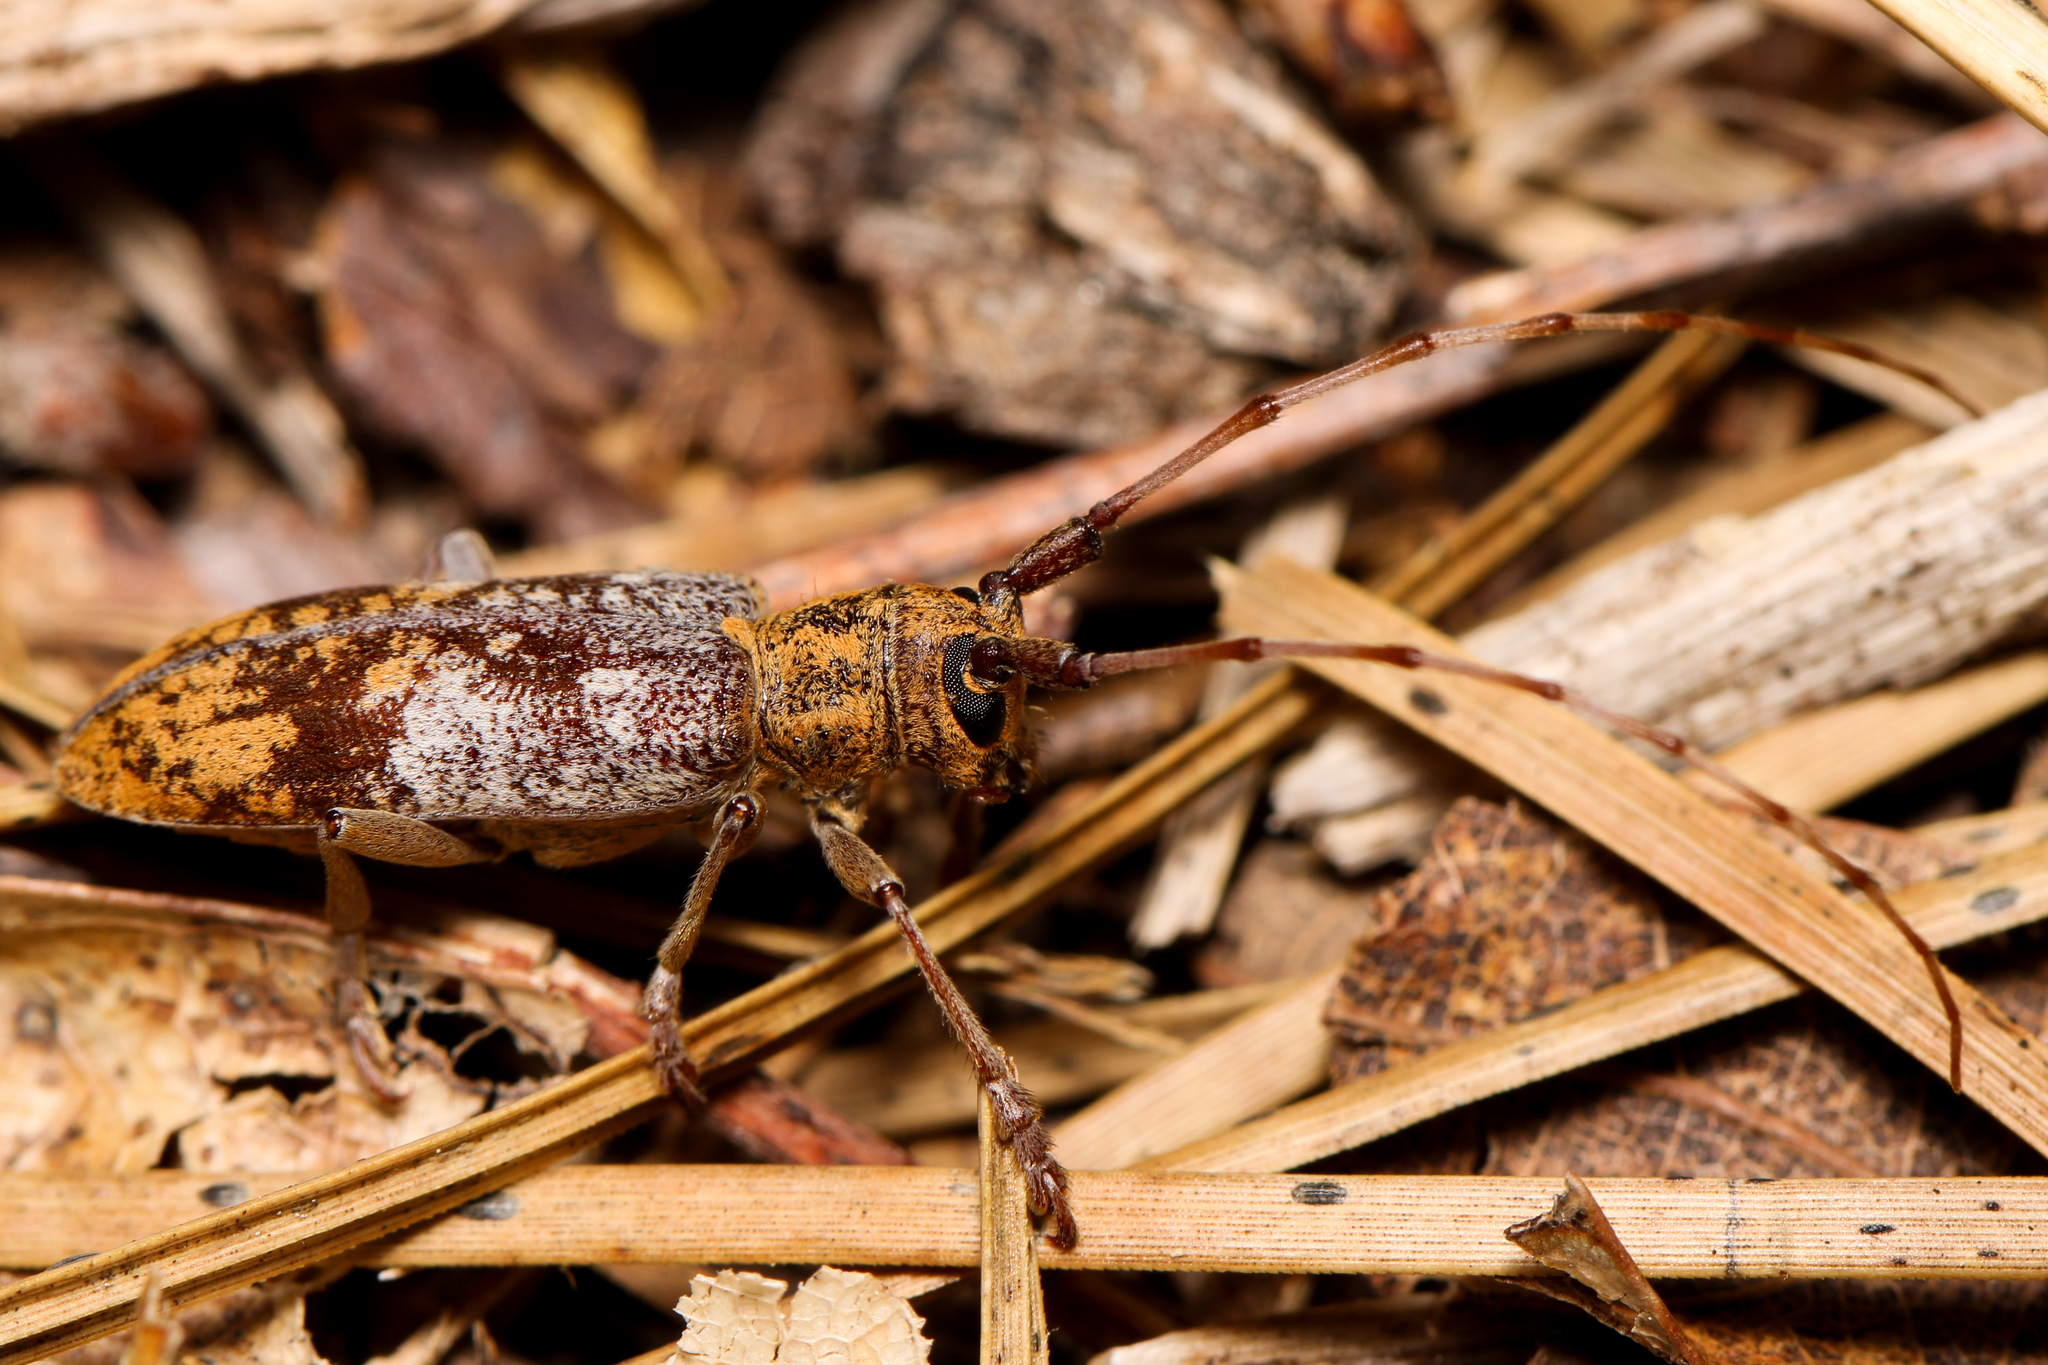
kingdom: Animalia
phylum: Arthropoda
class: Insecta
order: Coleoptera
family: Cerambycidae
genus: Goes
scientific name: Goes debilis
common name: Oak branch borer
